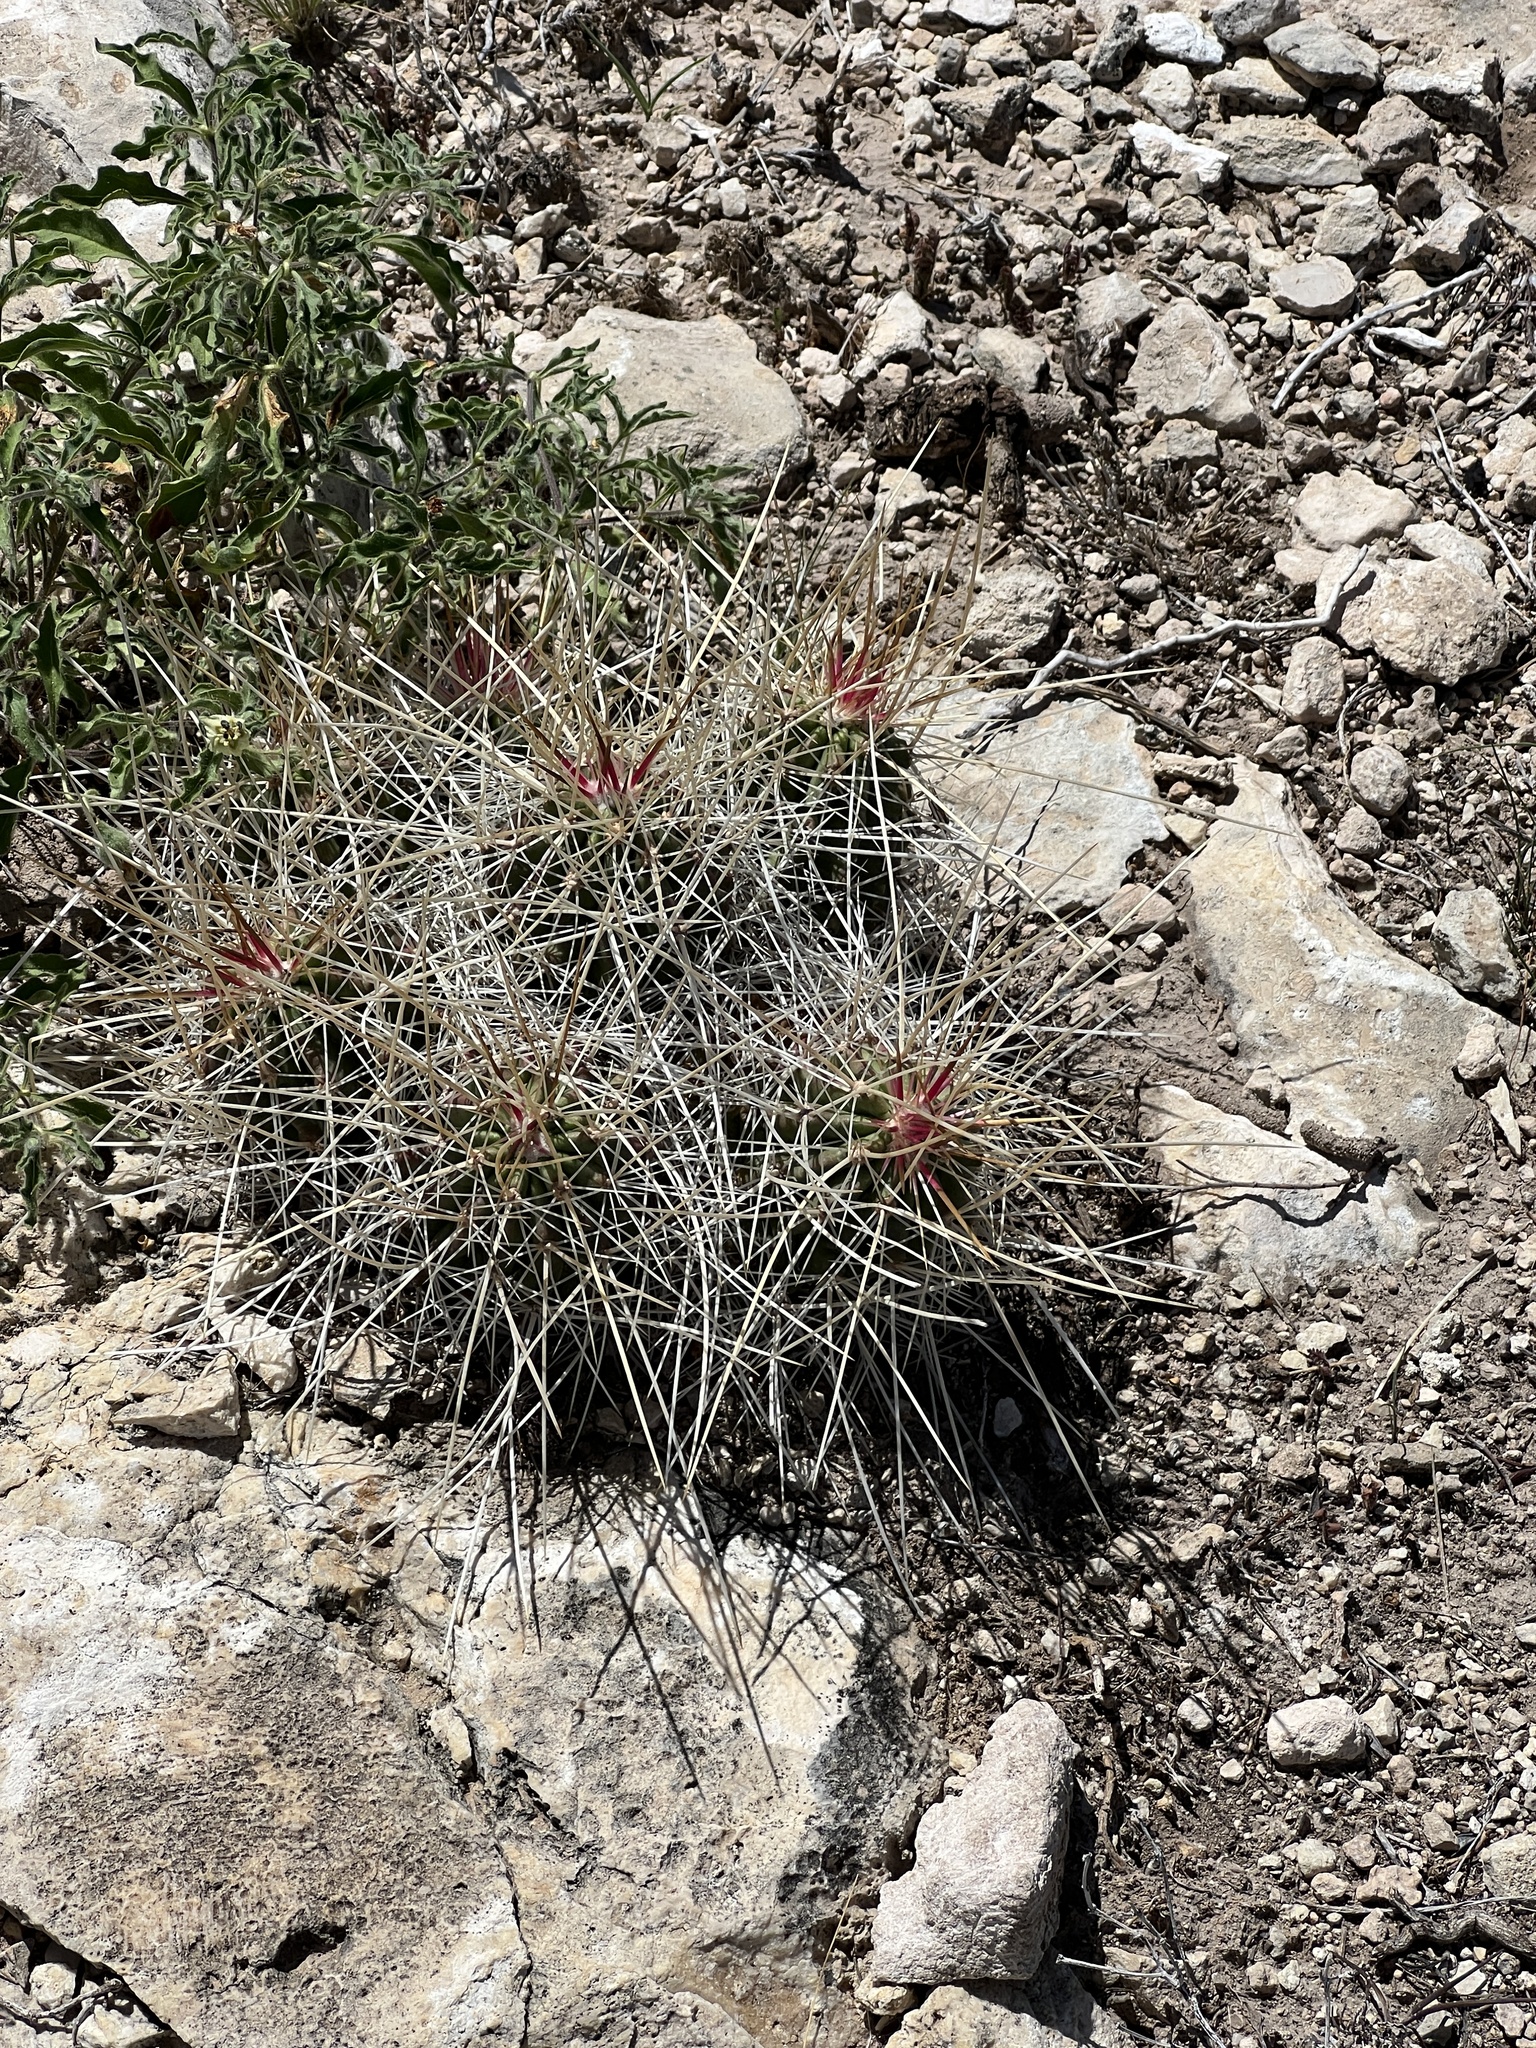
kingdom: Plantae
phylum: Tracheophyta
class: Magnoliopsida
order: Caryophyllales
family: Cactaceae
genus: Echinocereus
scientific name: Echinocereus stramineus
